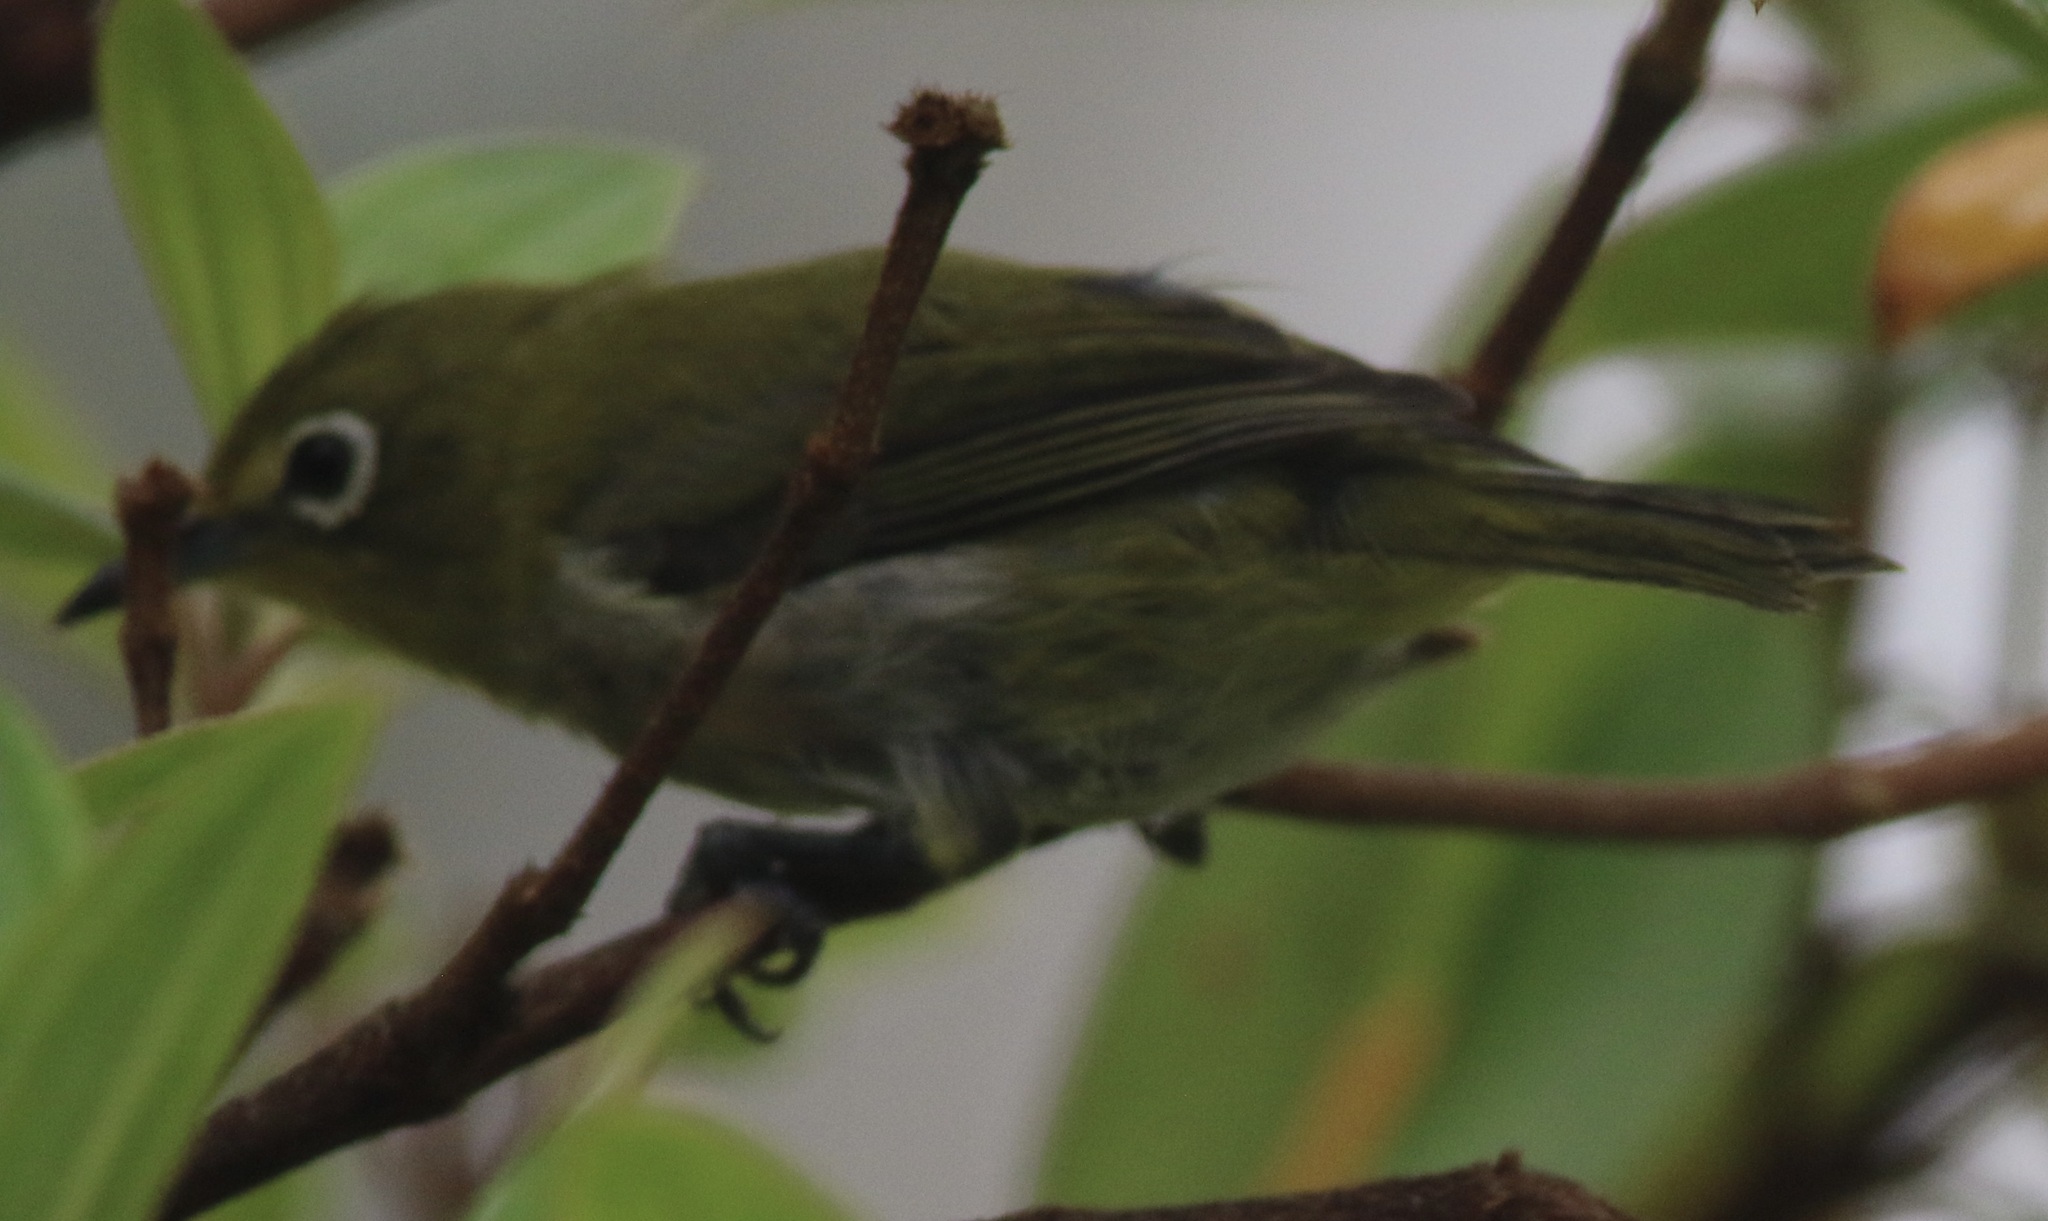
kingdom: Animalia
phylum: Chordata
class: Aves
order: Passeriformes
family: Zosteropidae
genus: Zosterops
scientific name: Zosterops japonicus
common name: Japanese white-eye
